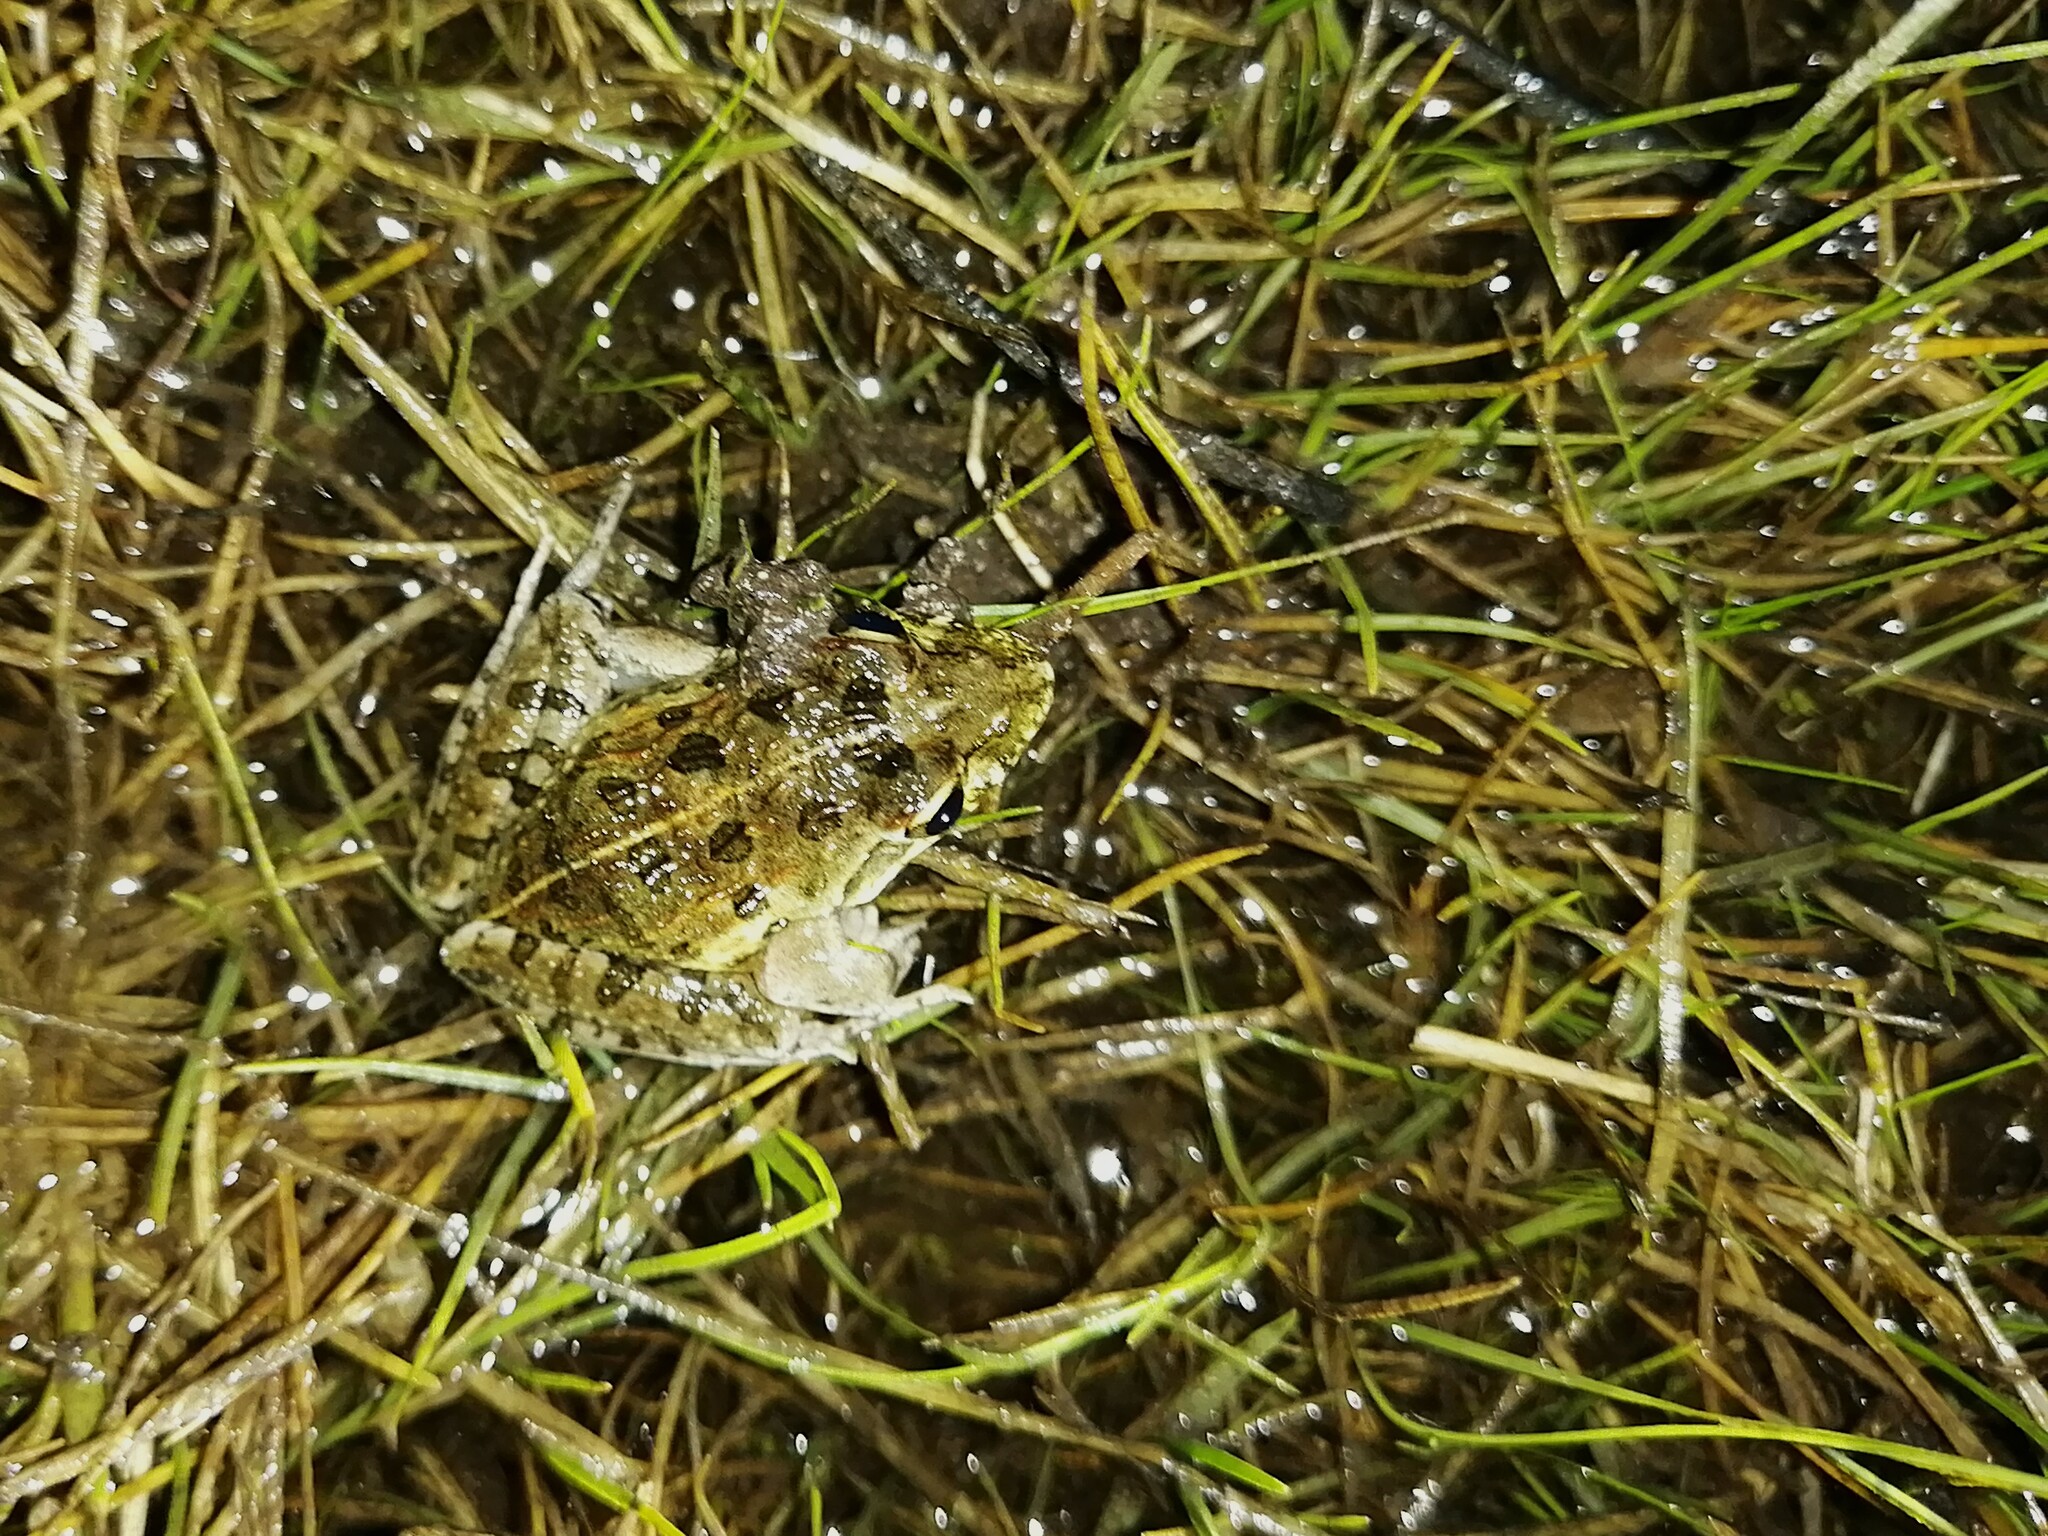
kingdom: Animalia
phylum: Chordata
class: Amphibia
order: Anura
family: Pyxicephalidae
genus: Strongylopus
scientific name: Strongylopus grayii
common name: Gray's stream frog
